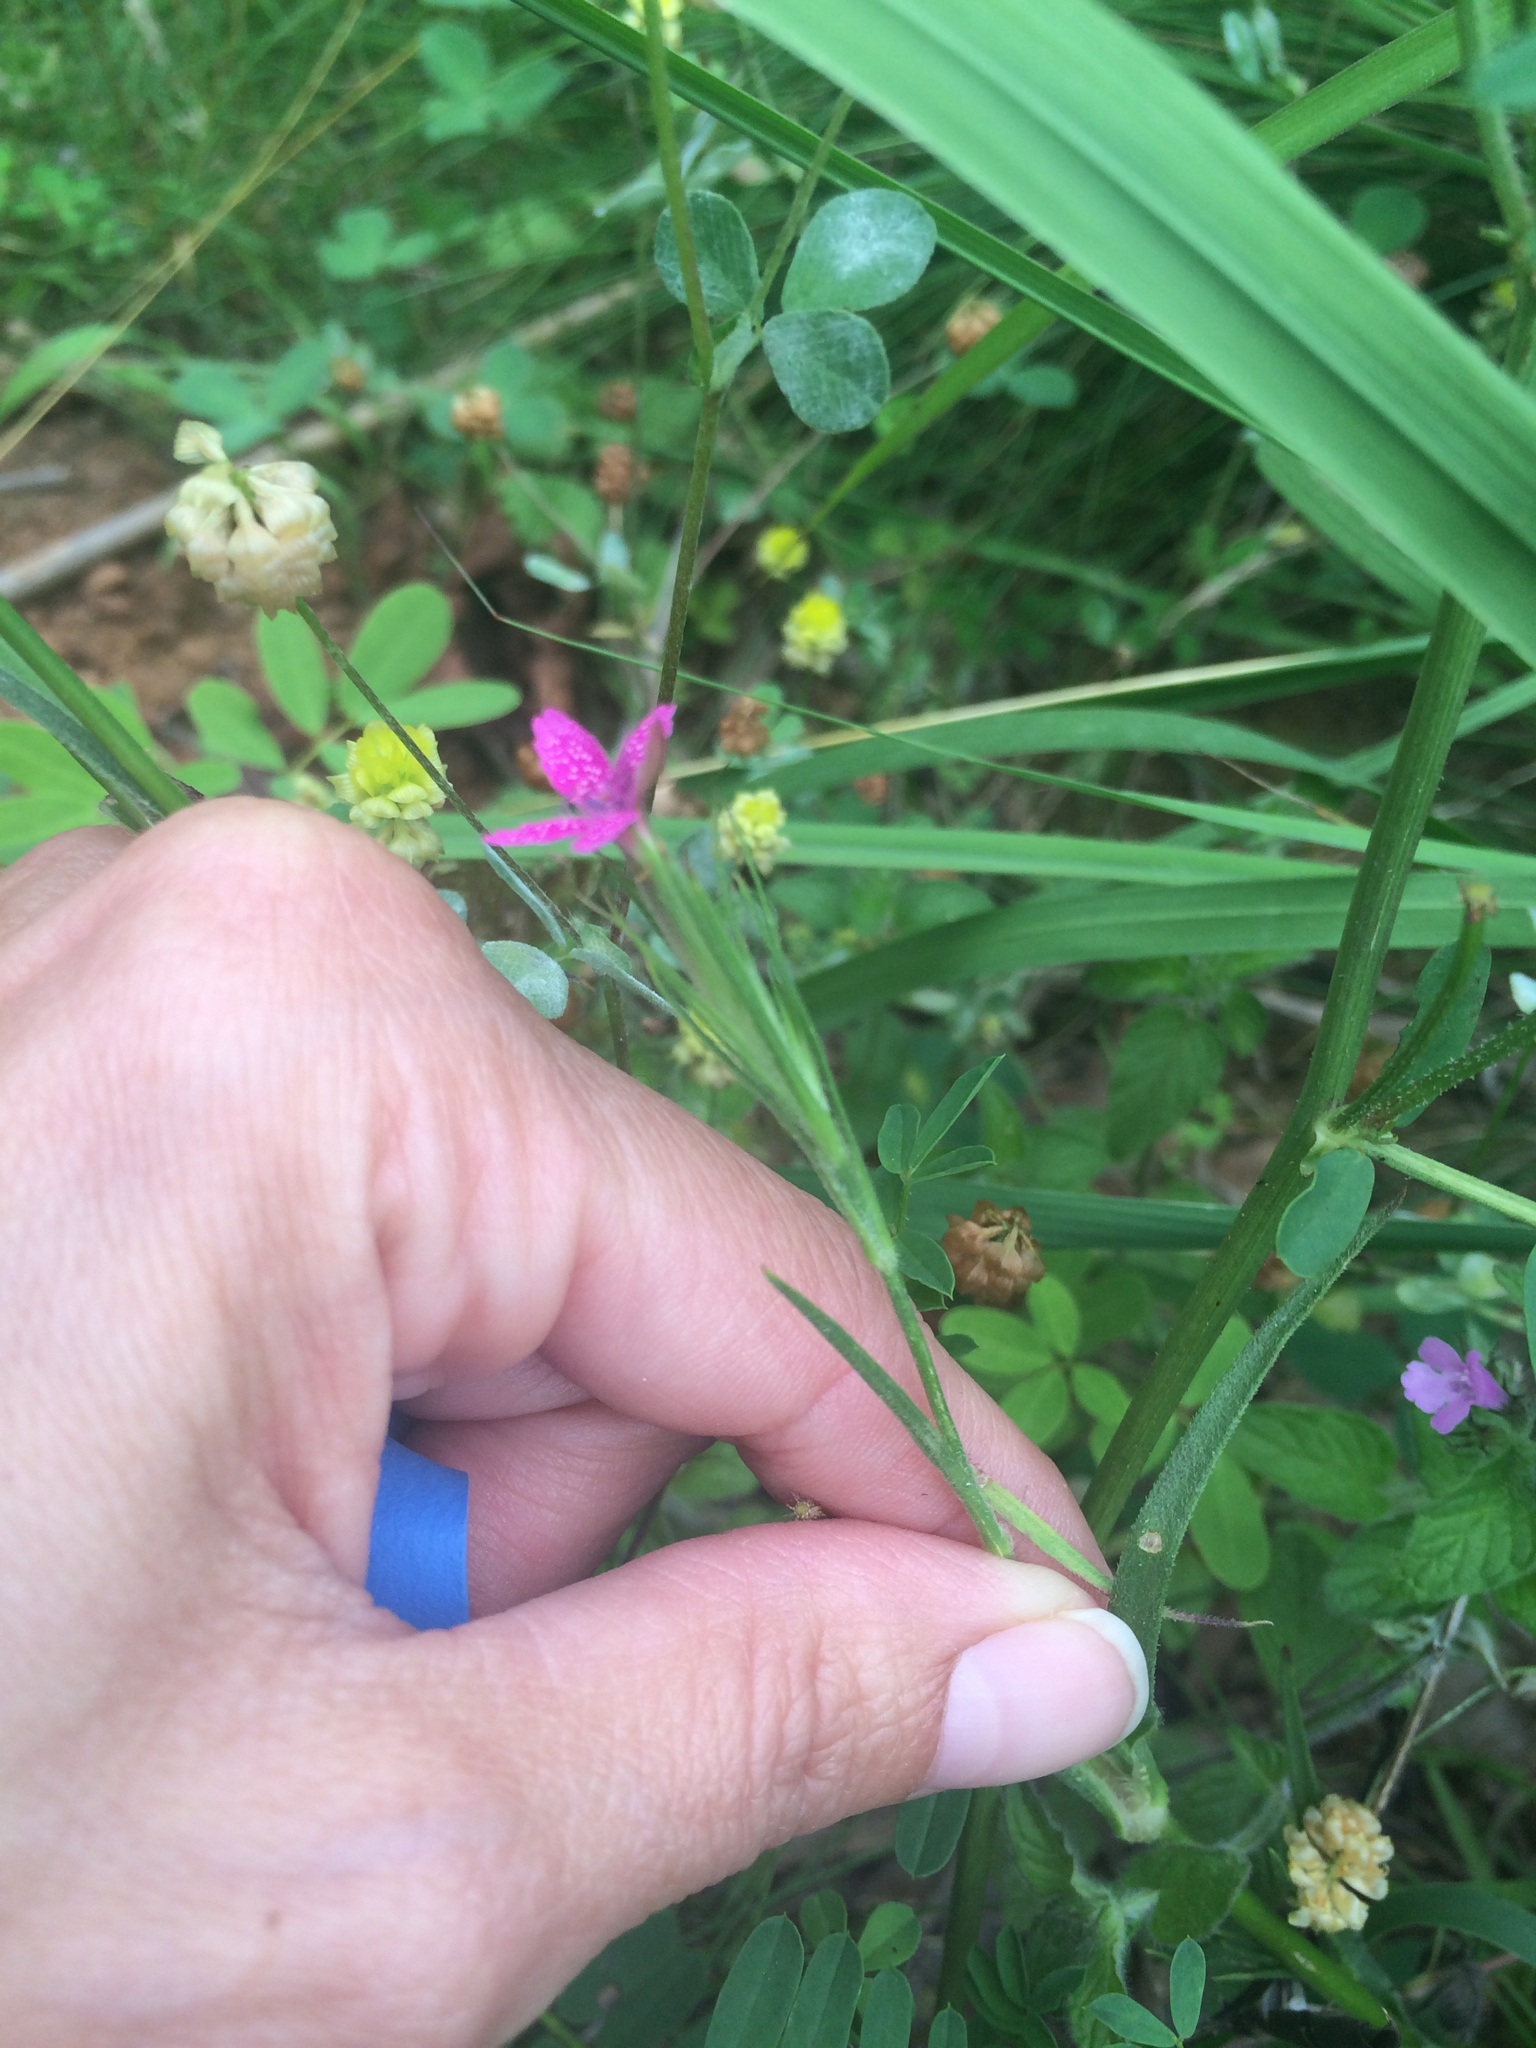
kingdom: Plantae
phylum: Tracheophyta
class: Magnoliopsida
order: Caryophyllales
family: Caryophyllaceae
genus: Dianthus
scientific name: Dianthus armeria
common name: Deptford pink
